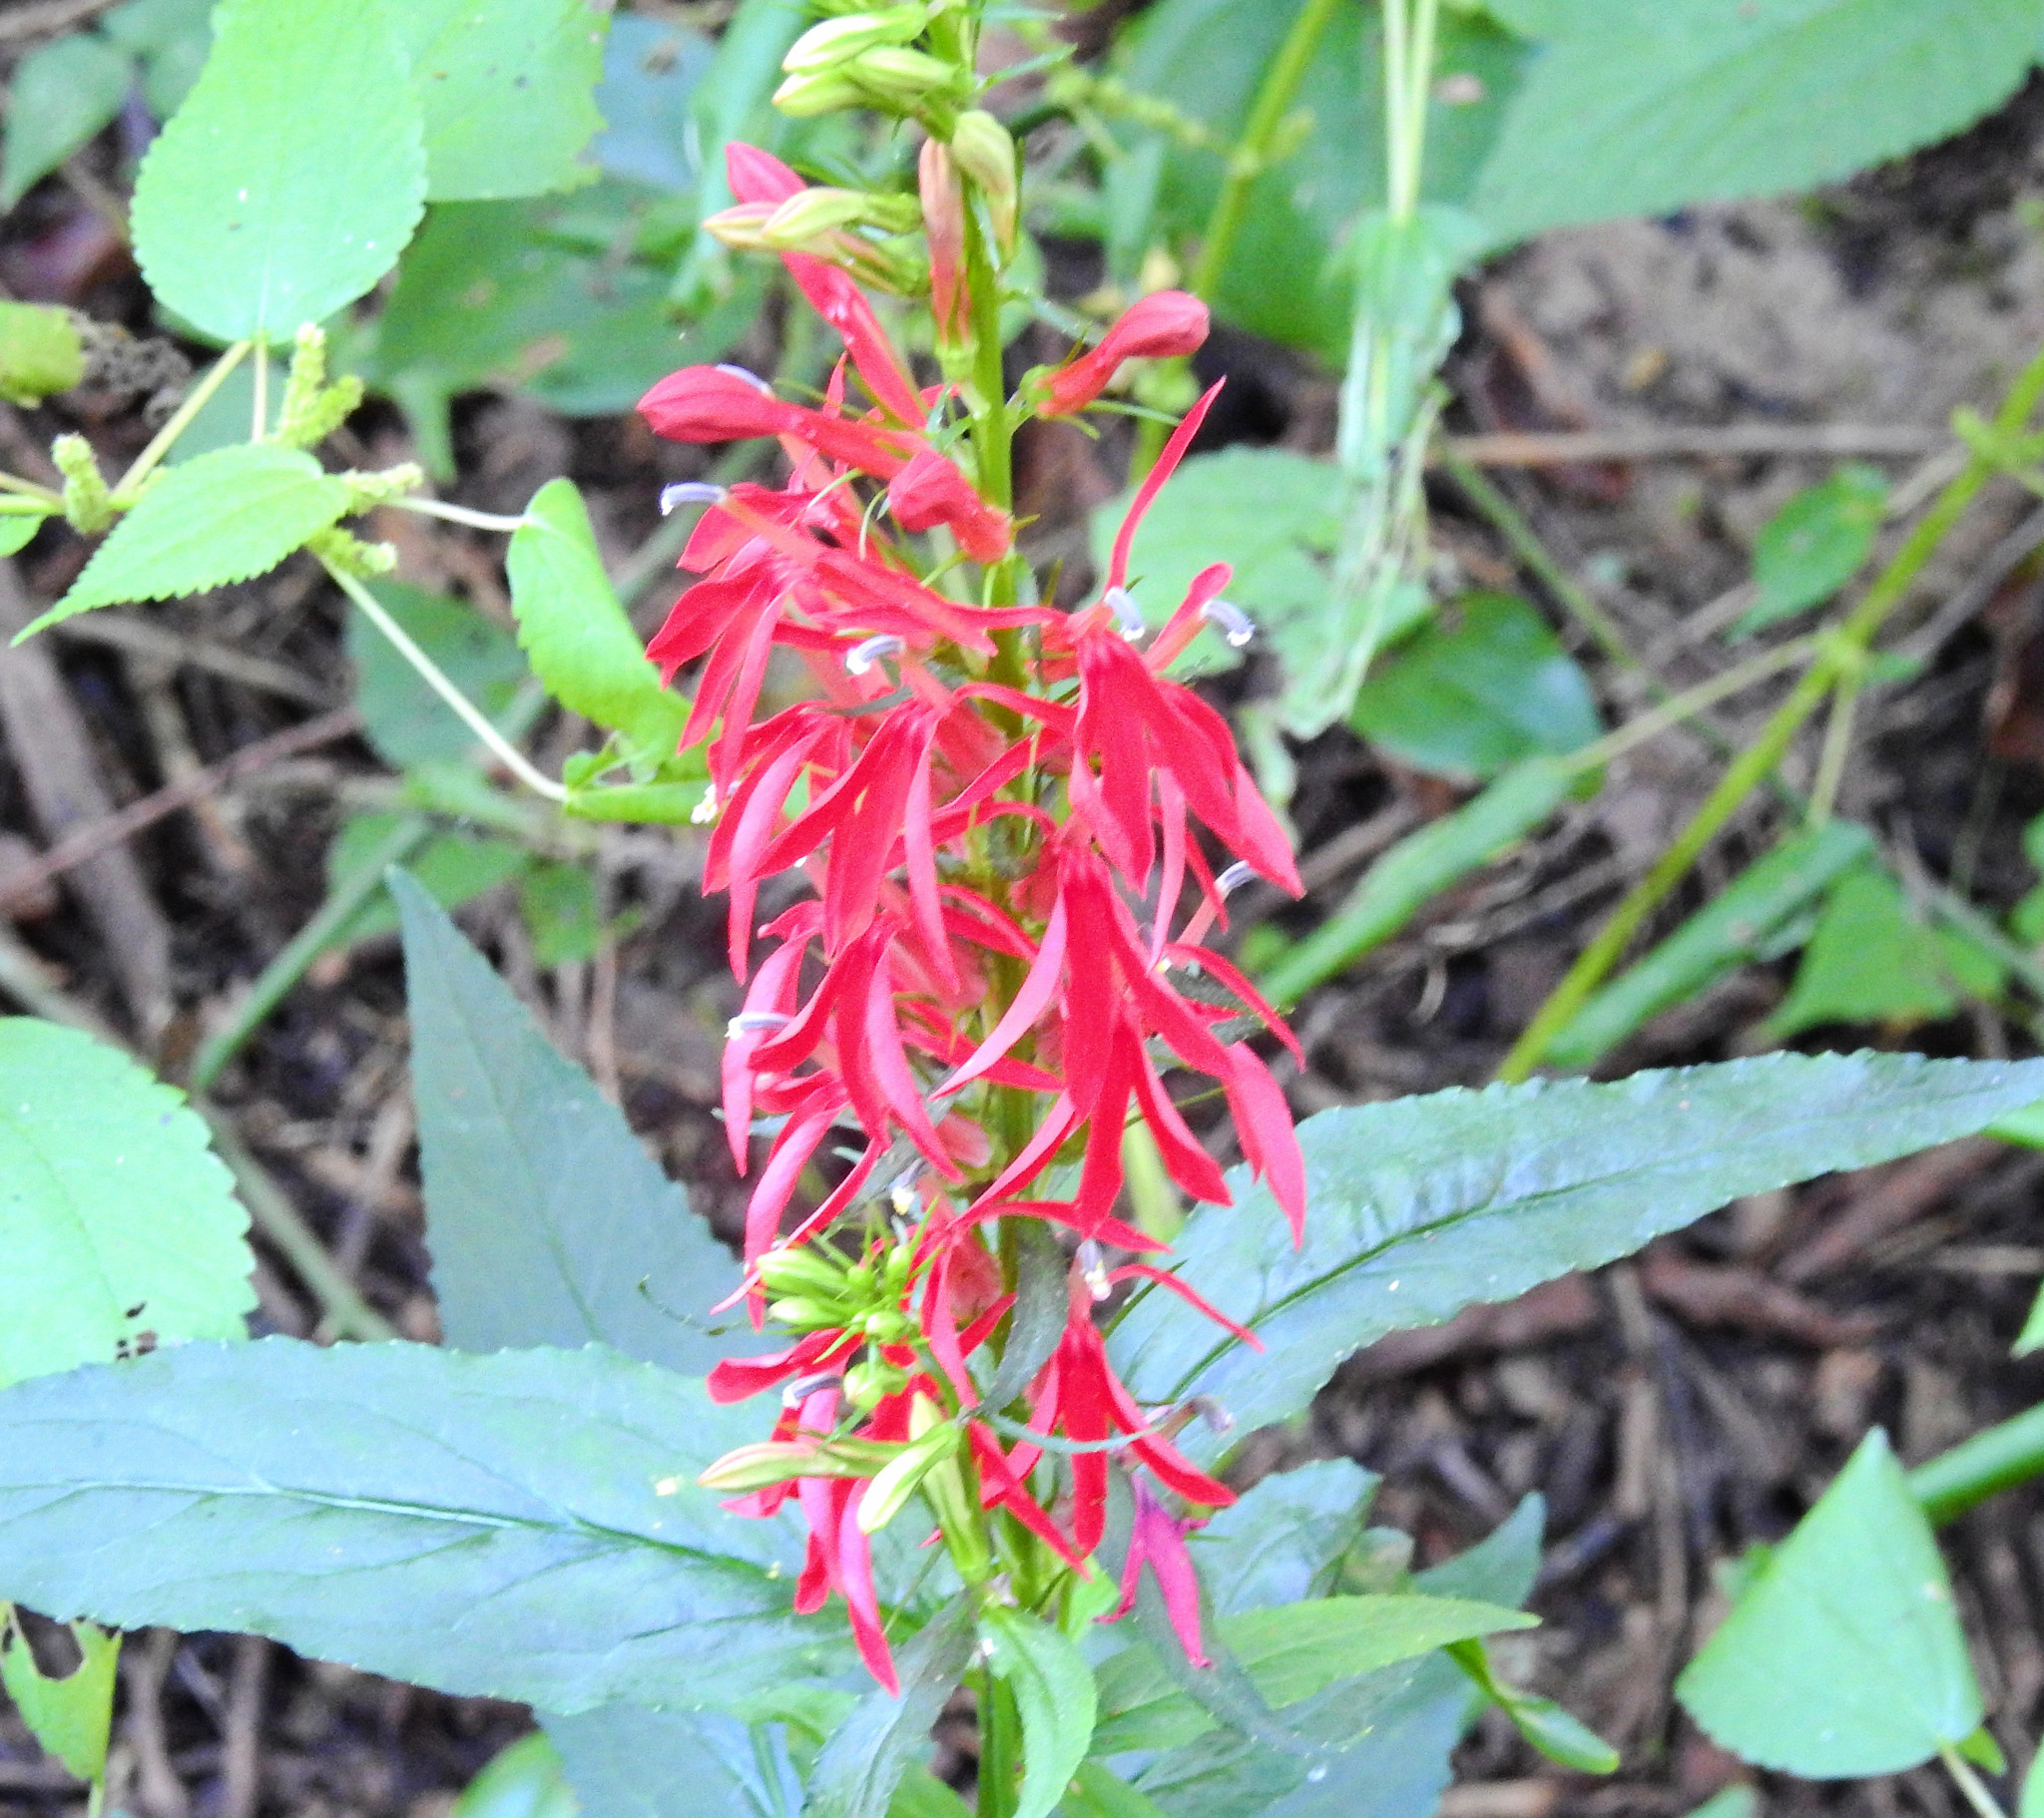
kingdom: Plantae
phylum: Tracheophyta
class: Magnoliopsida
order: Asterales
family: Campanulaceae
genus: Lobelia
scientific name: Lobelia cardinalis
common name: Cardinal flower
